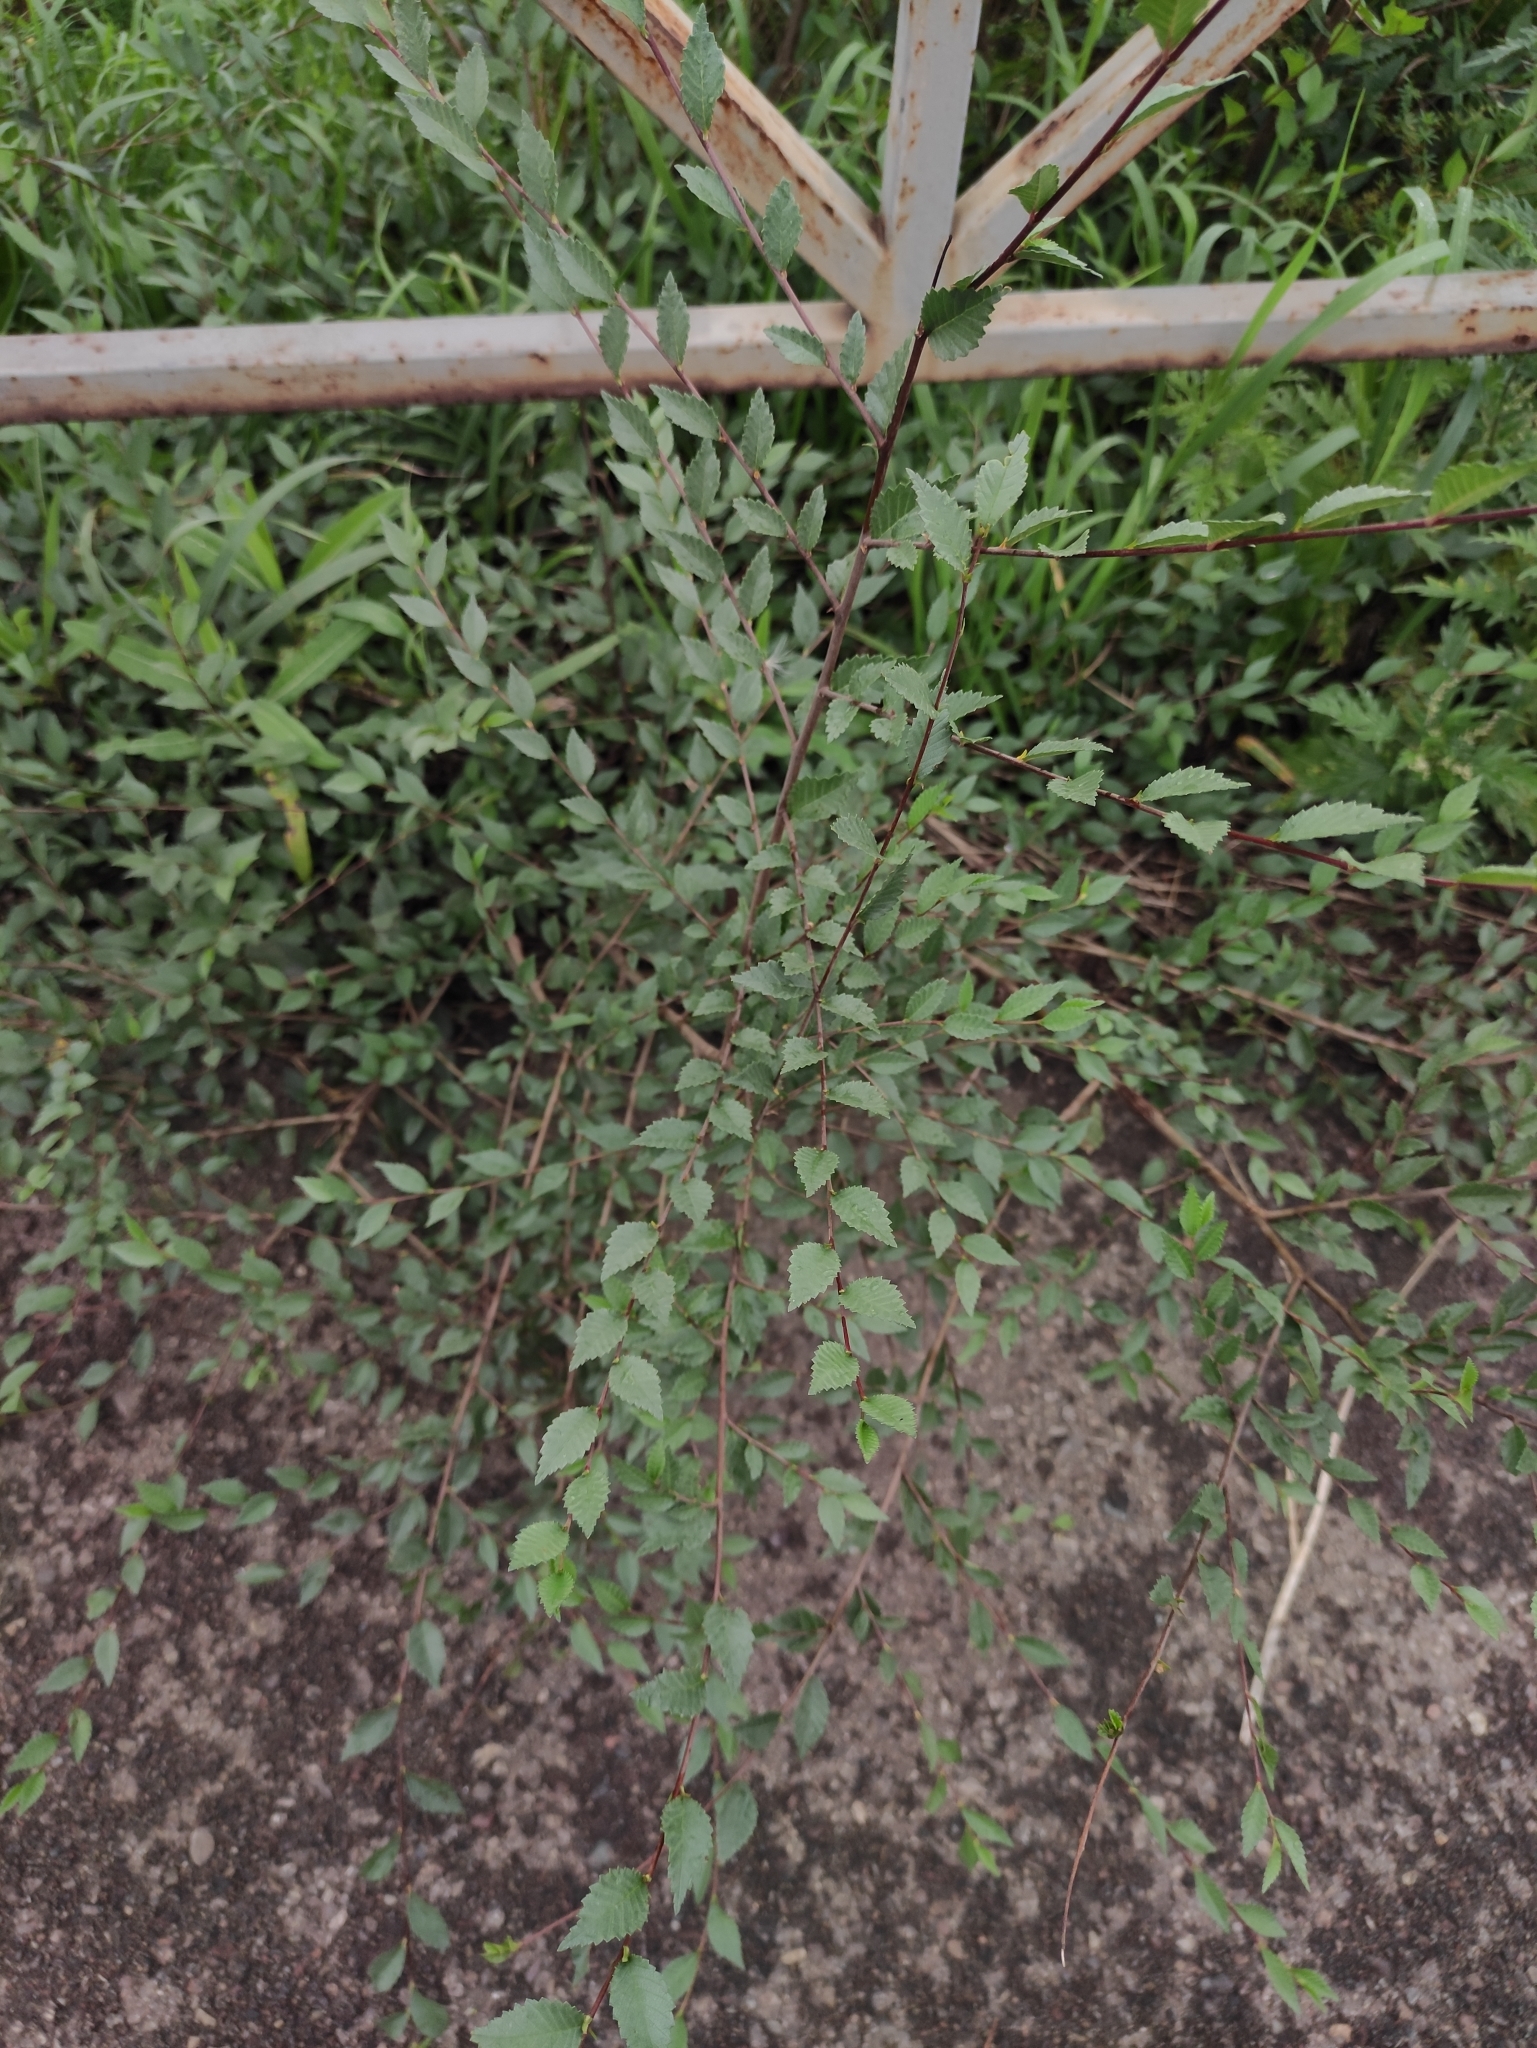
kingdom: Plantae
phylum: Tracheophyta
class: Magnoliopsida
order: Rosales
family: Ulmaceae
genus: Ulmus
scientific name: Ulmus pumila
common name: Siberian elm
